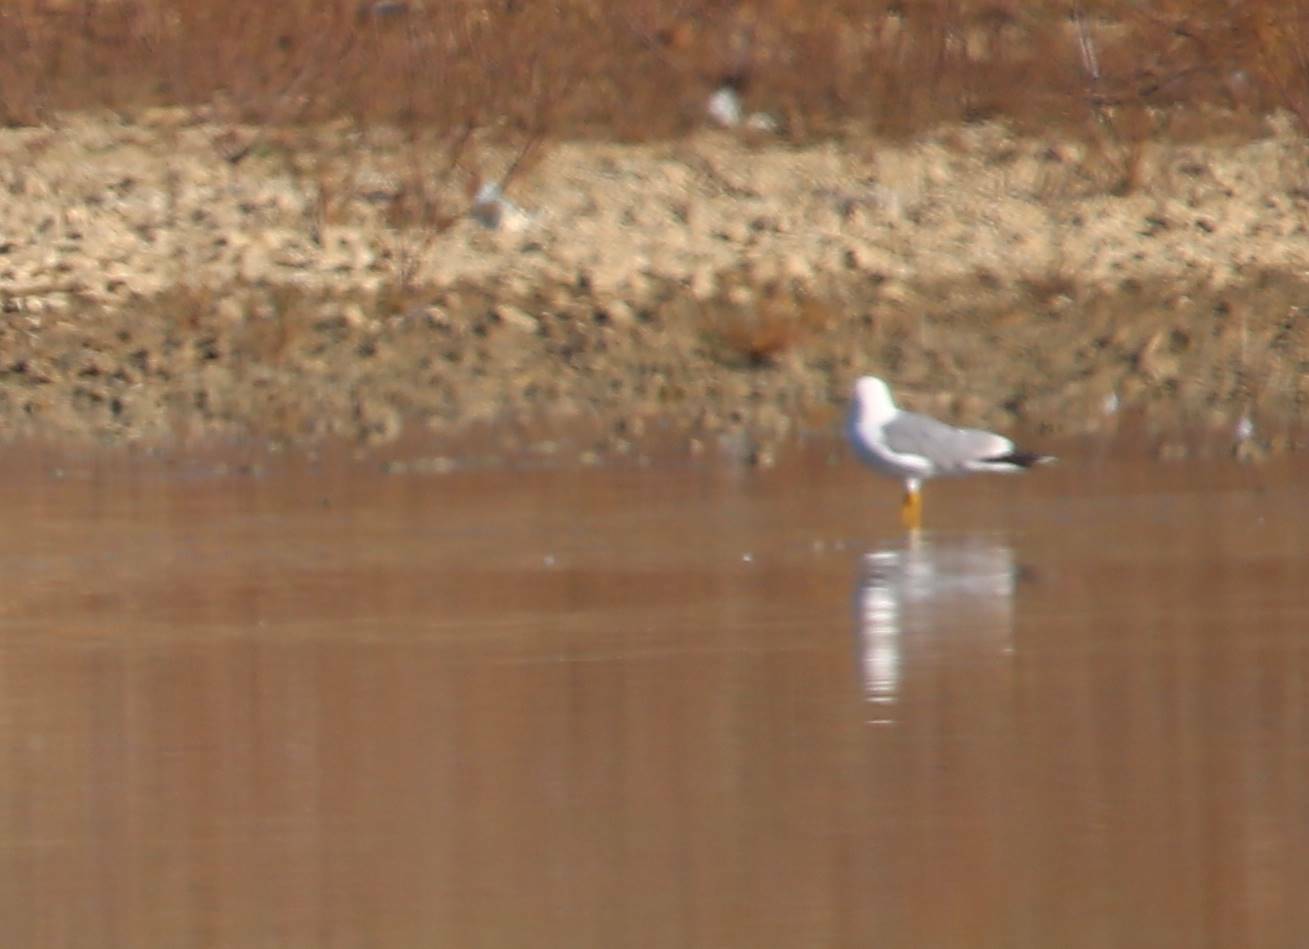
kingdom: Animalia
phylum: Chordata
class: Aves
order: Charadriiformes
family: Laridae
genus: Larus
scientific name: Larus michahellis
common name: Yellow-legged gull
